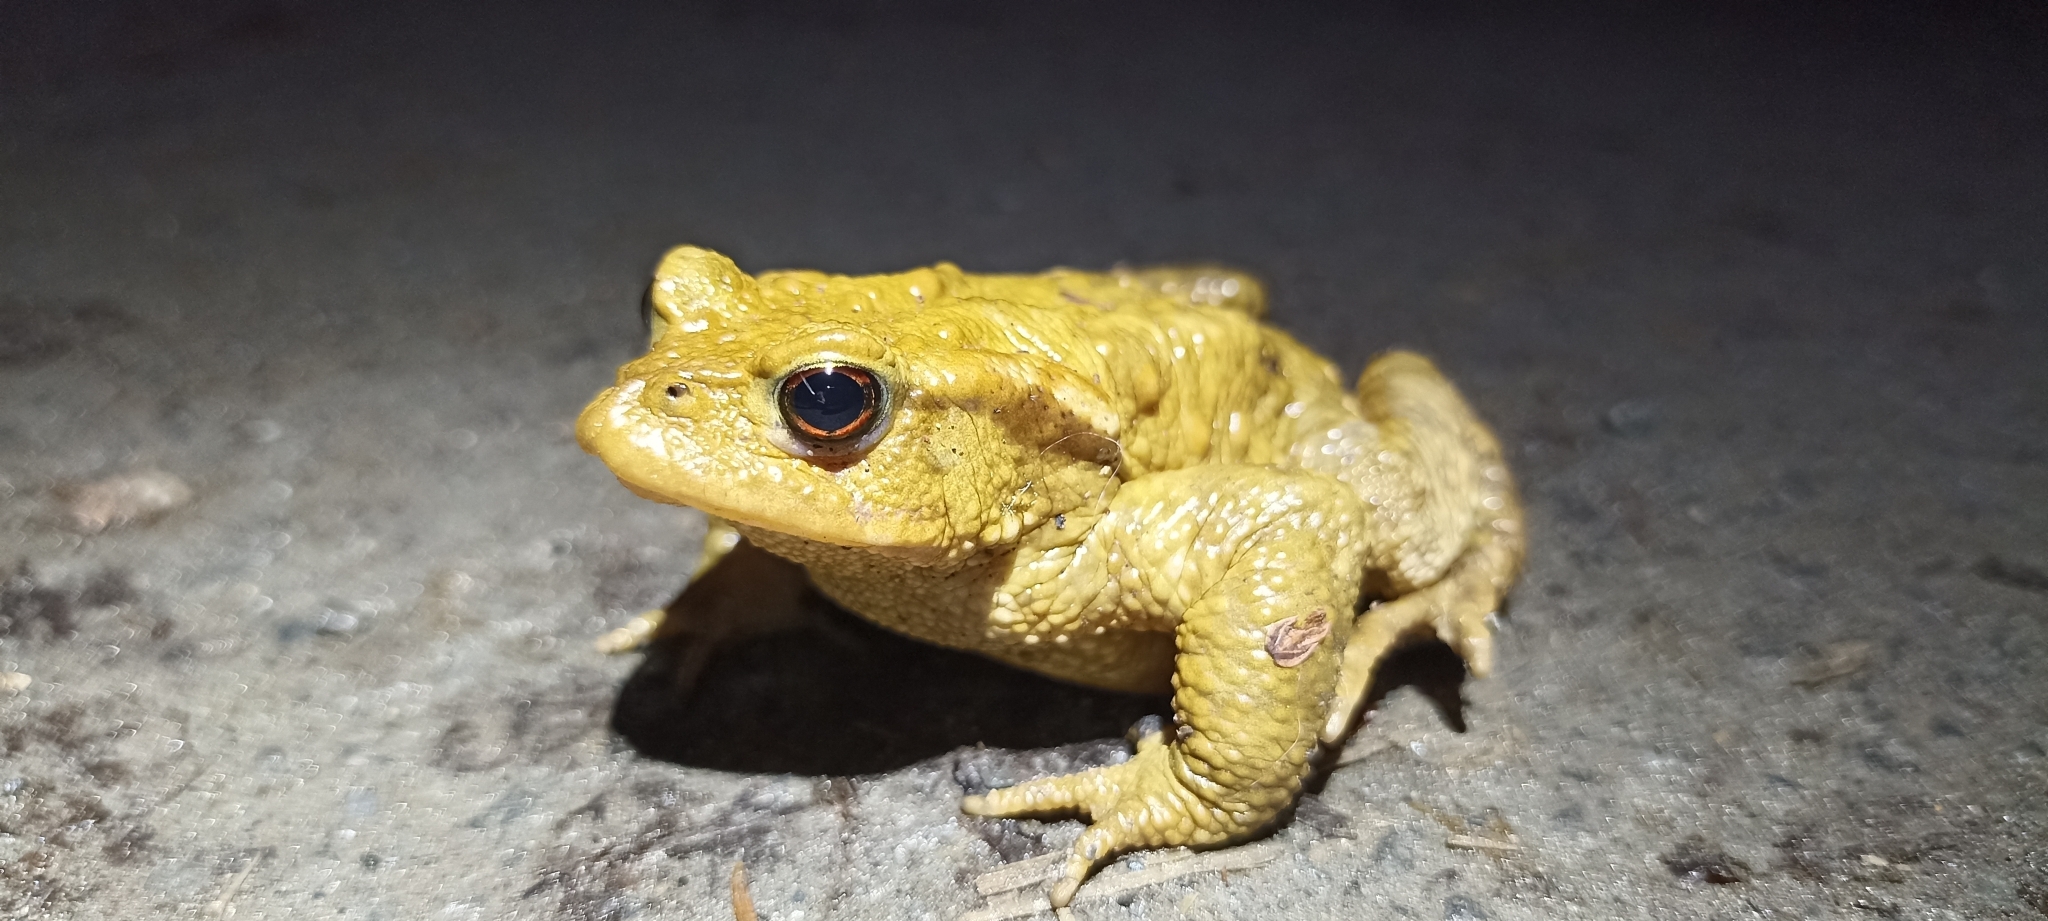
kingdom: Animalia
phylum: Chordata
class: Amphibia
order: Anura
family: Bufonidae
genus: Bufo
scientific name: Bufo spinosus
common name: Western common toad
